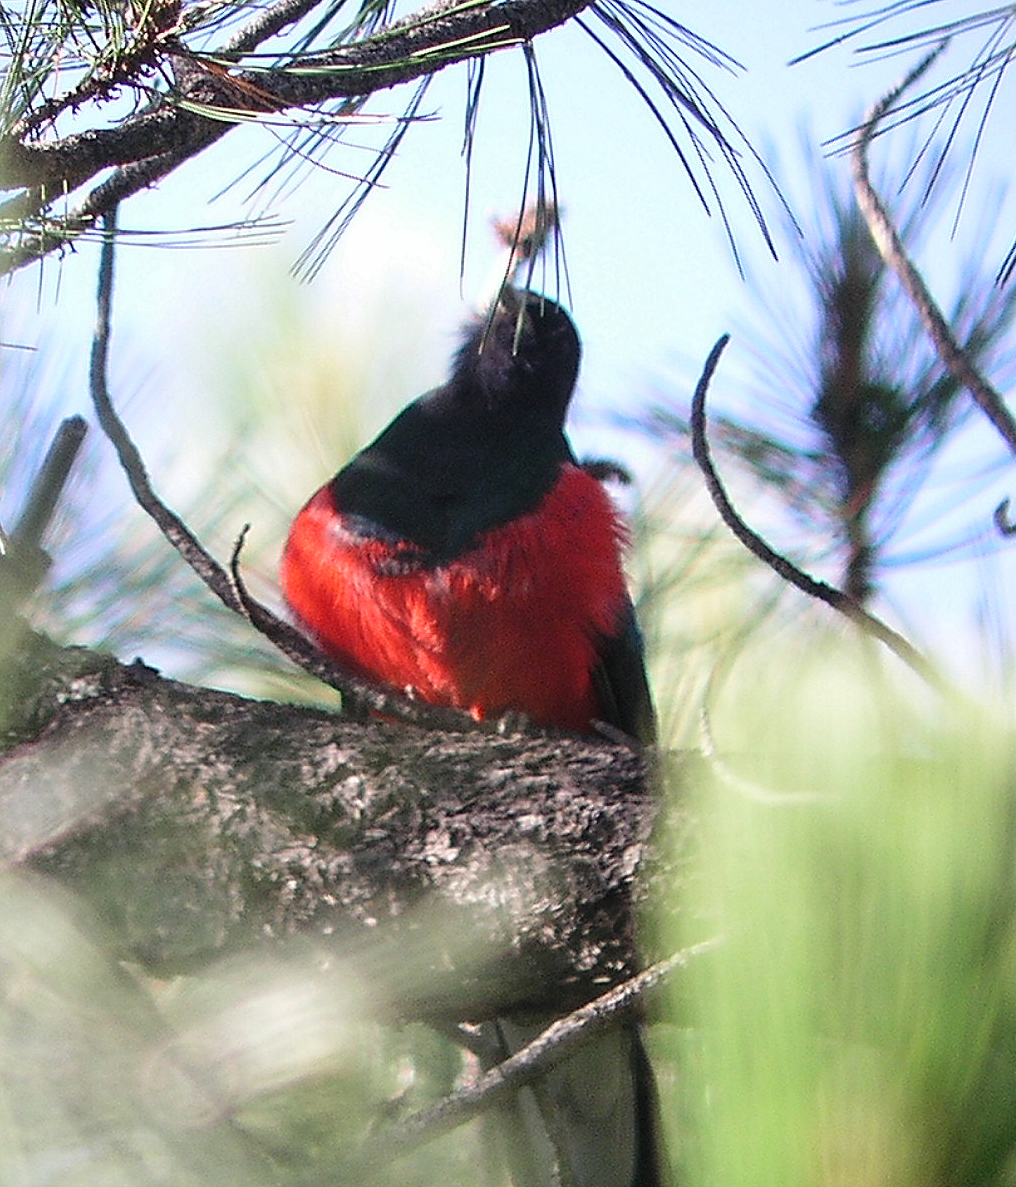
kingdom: Animalia
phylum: Chordata
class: Aves
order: Trogoniformes
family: Trogonidae
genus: Euptilotis
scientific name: Euptilotis neoxenus
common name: Eared quetzal
